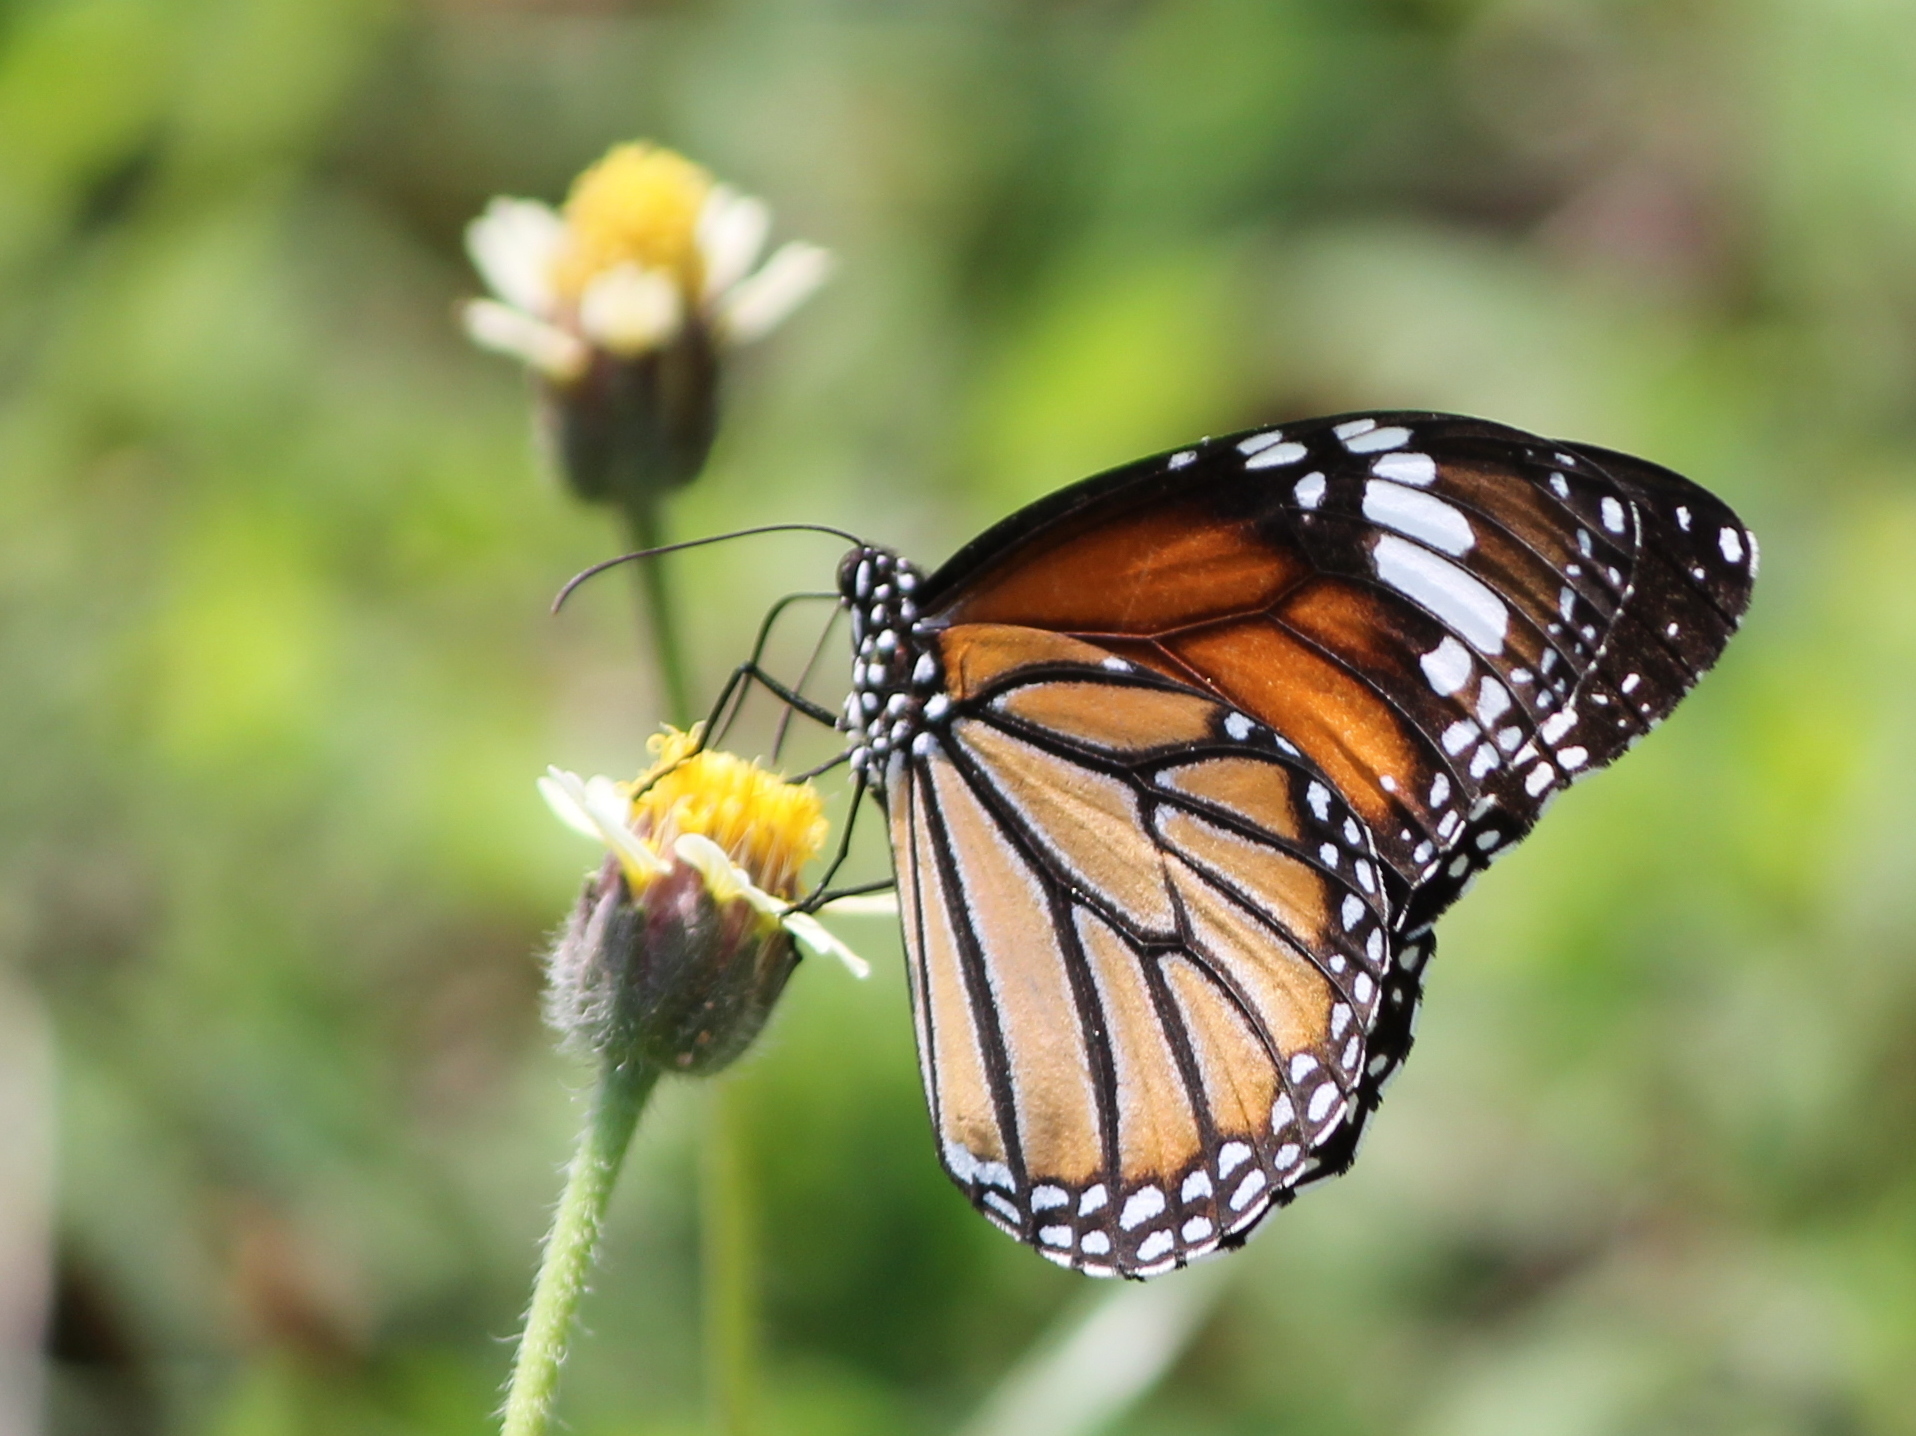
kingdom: Animalia
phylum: Arthropoda
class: Insecta
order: Lepidoptera
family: Nymphalidae
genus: Danaus
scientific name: Danaus genutia
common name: Common tiger butterfly
